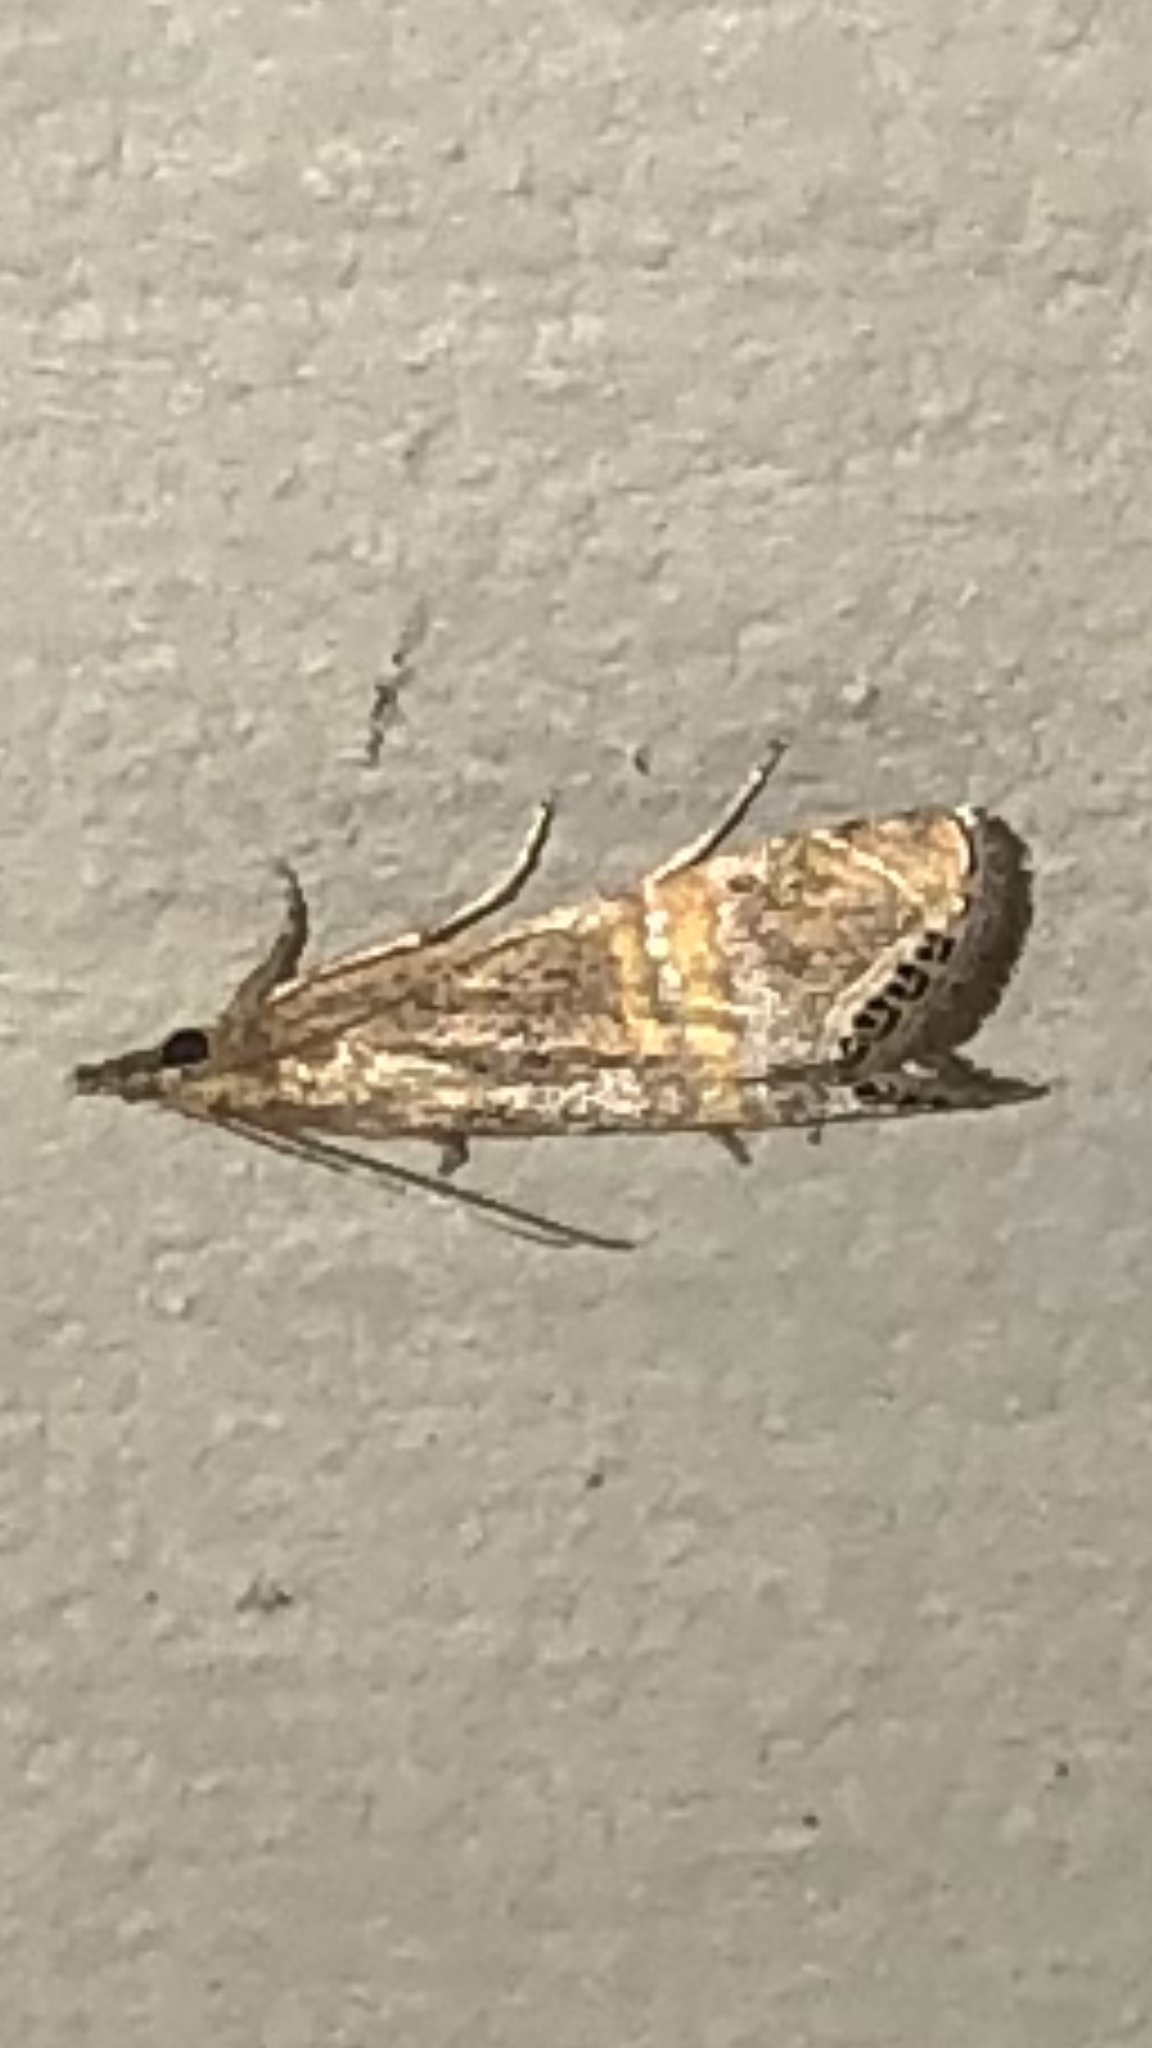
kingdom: Animalia
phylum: Arthropoda
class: Insecta
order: Lepidoptera
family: Crambidae
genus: Euchromius
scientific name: Euchromius ocellea
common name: Necklace veneer moth
